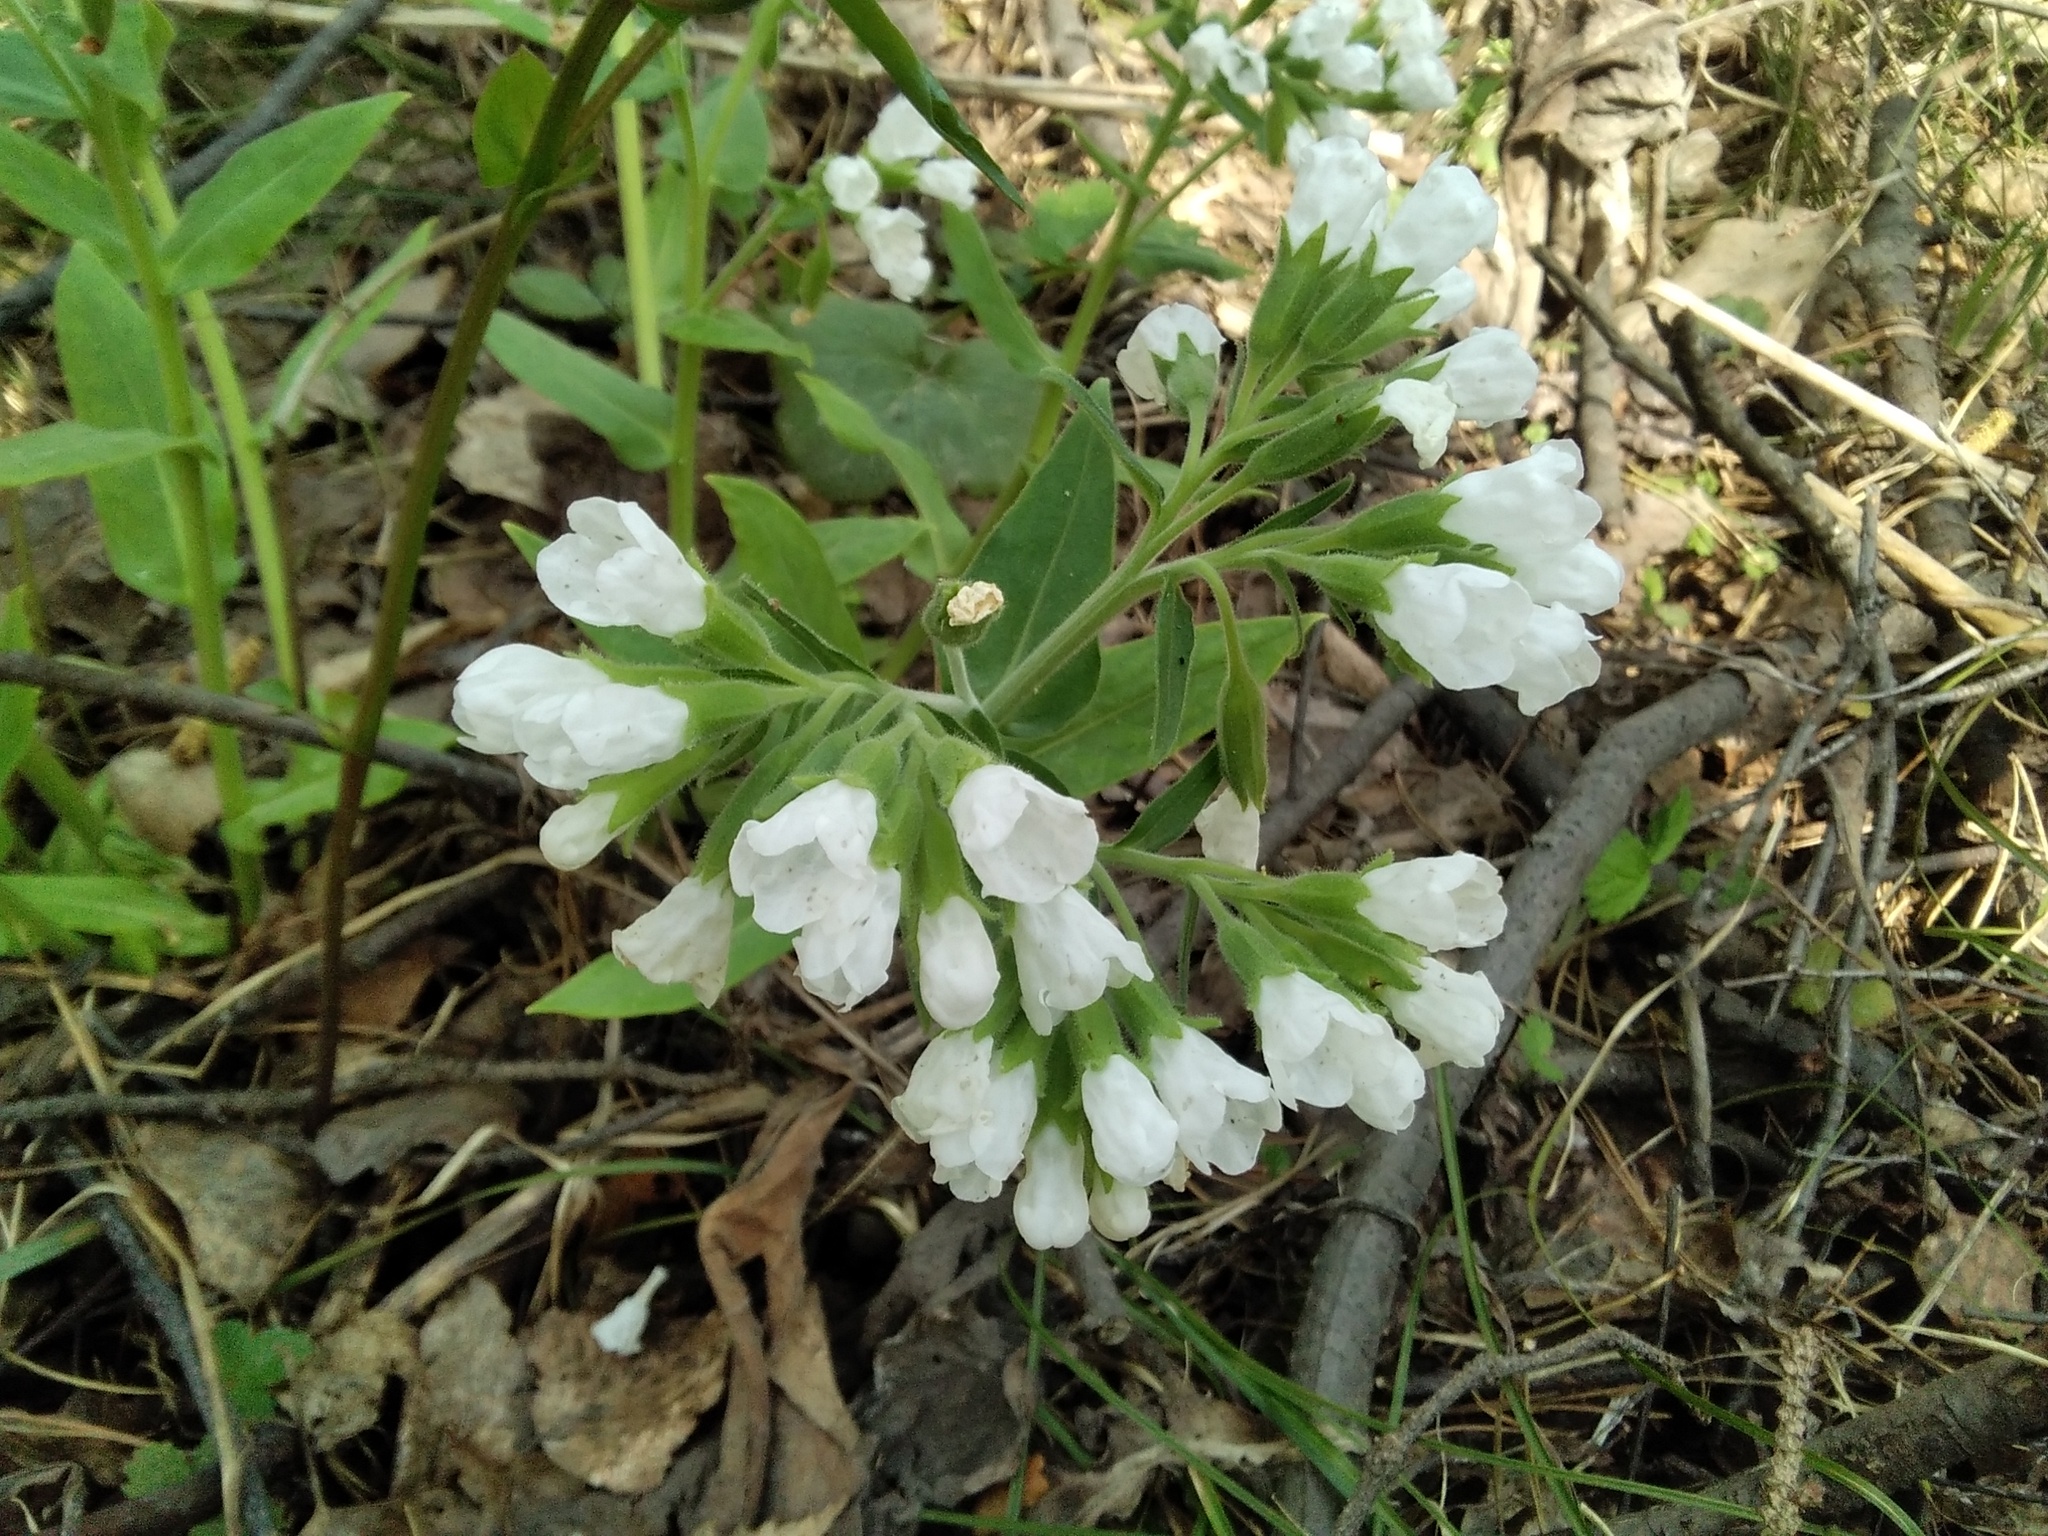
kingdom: Plantae
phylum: Tracheophyta
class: Magnoliopsida
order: Boraginales
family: Boraginaceae
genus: Pulmonaria
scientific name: Pulmonaria mollis
